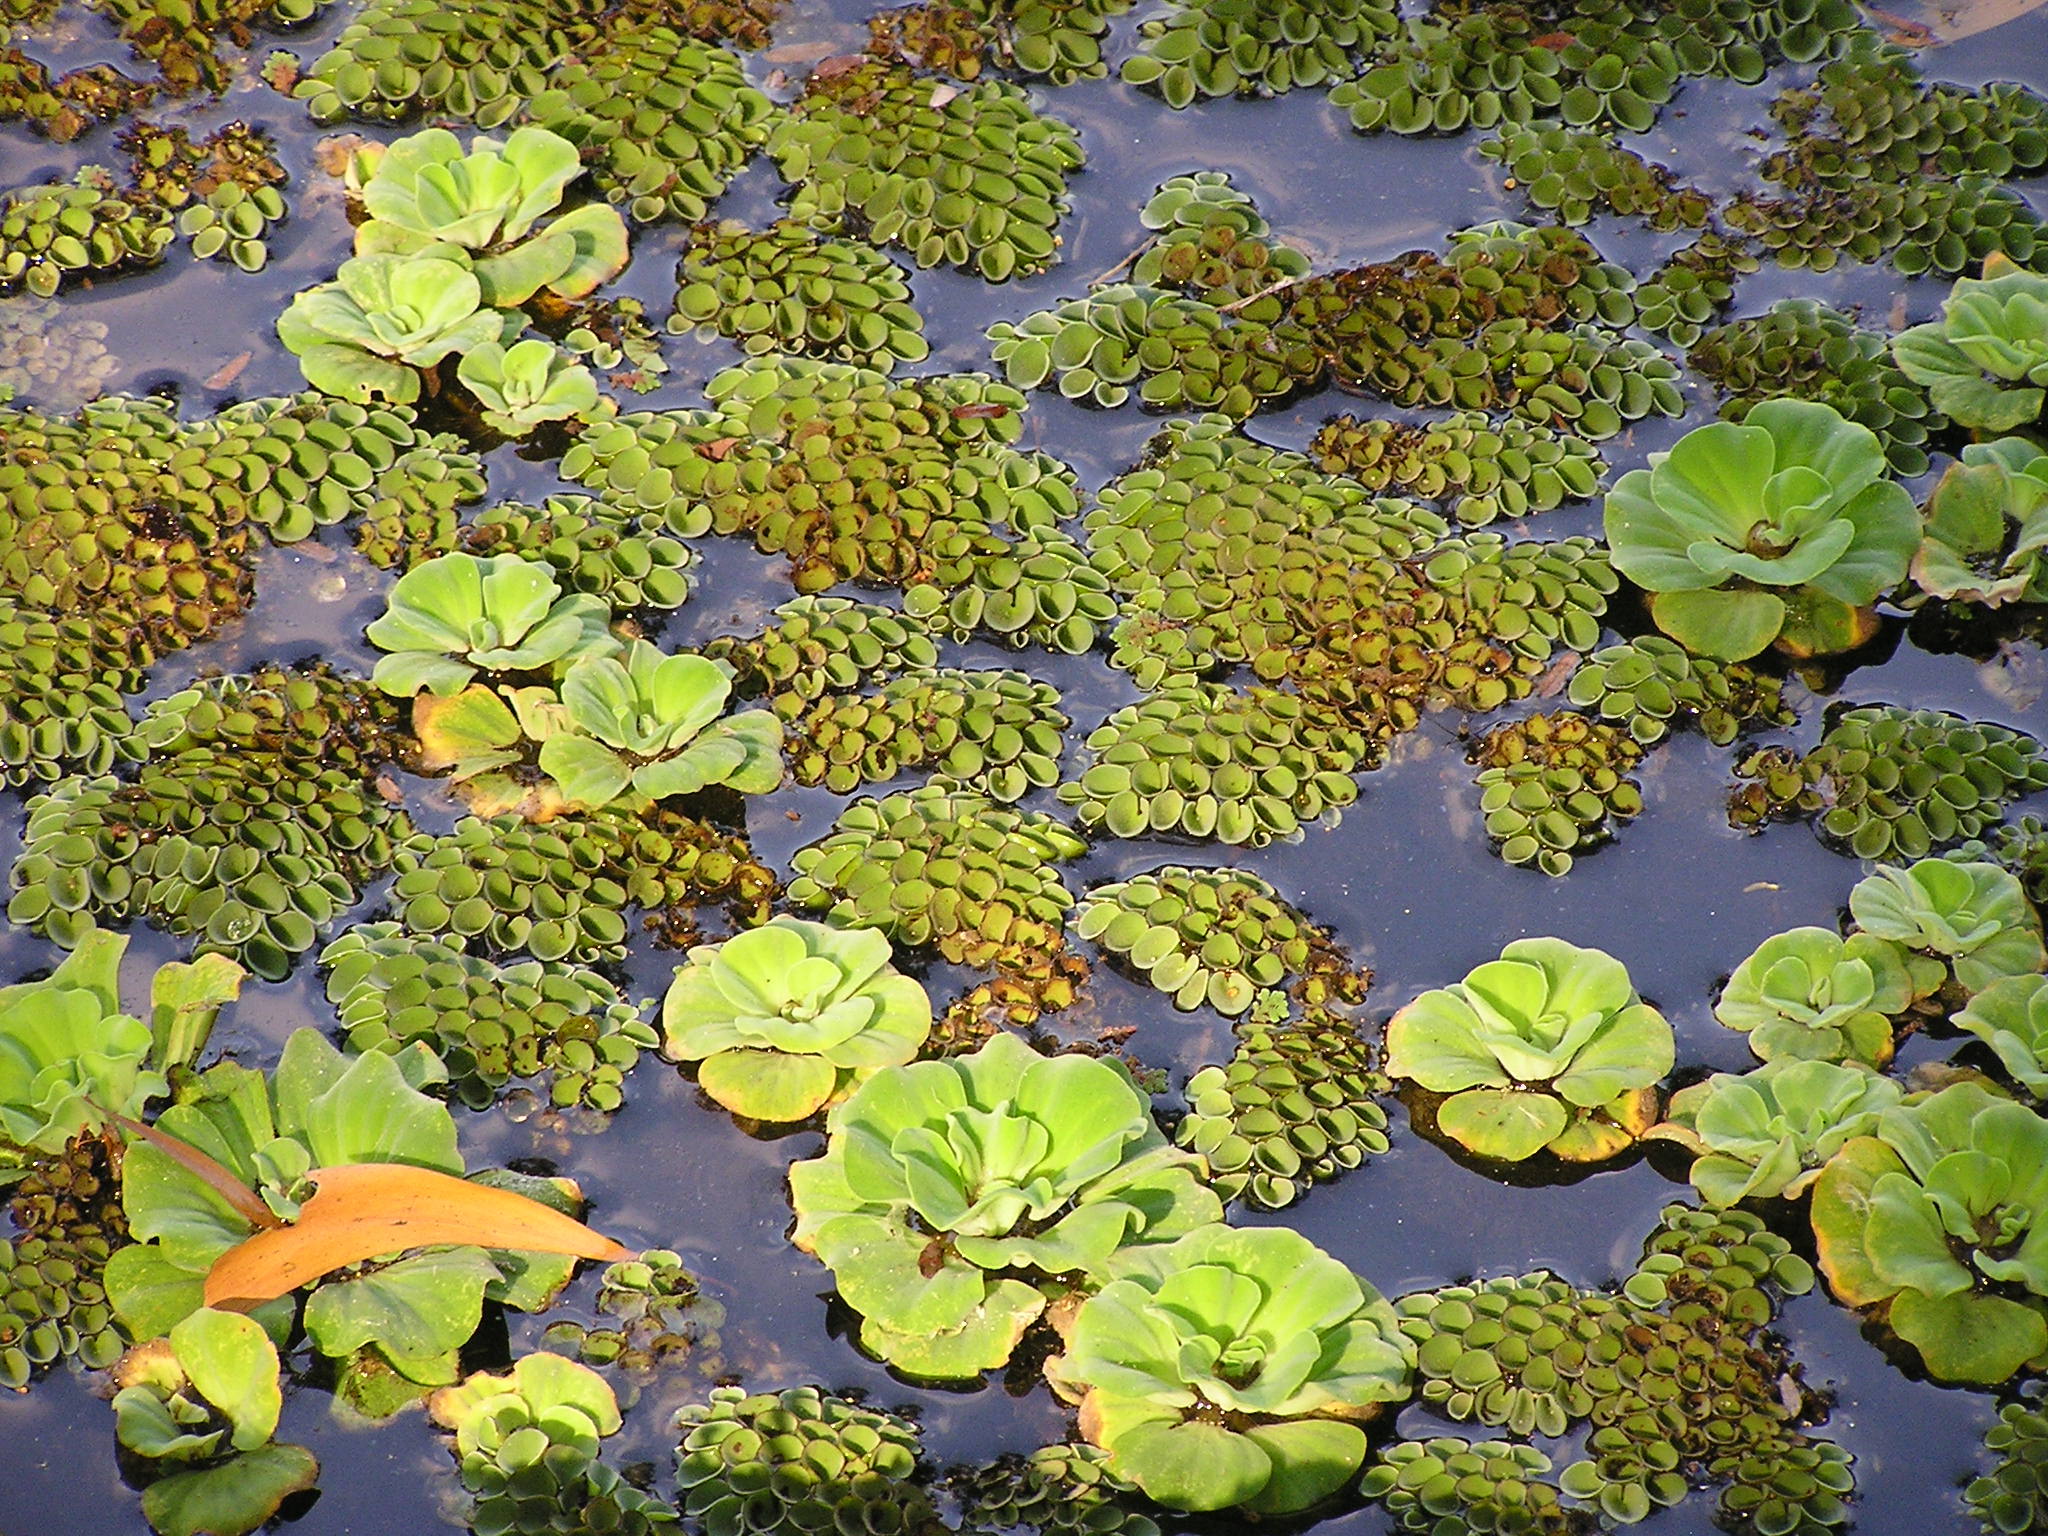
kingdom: Plantae
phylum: Tracheophyta
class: Liliopsida
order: Alismatales
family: Araceae
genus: Pistia
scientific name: Pistia stratiotes
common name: Water lettuce
